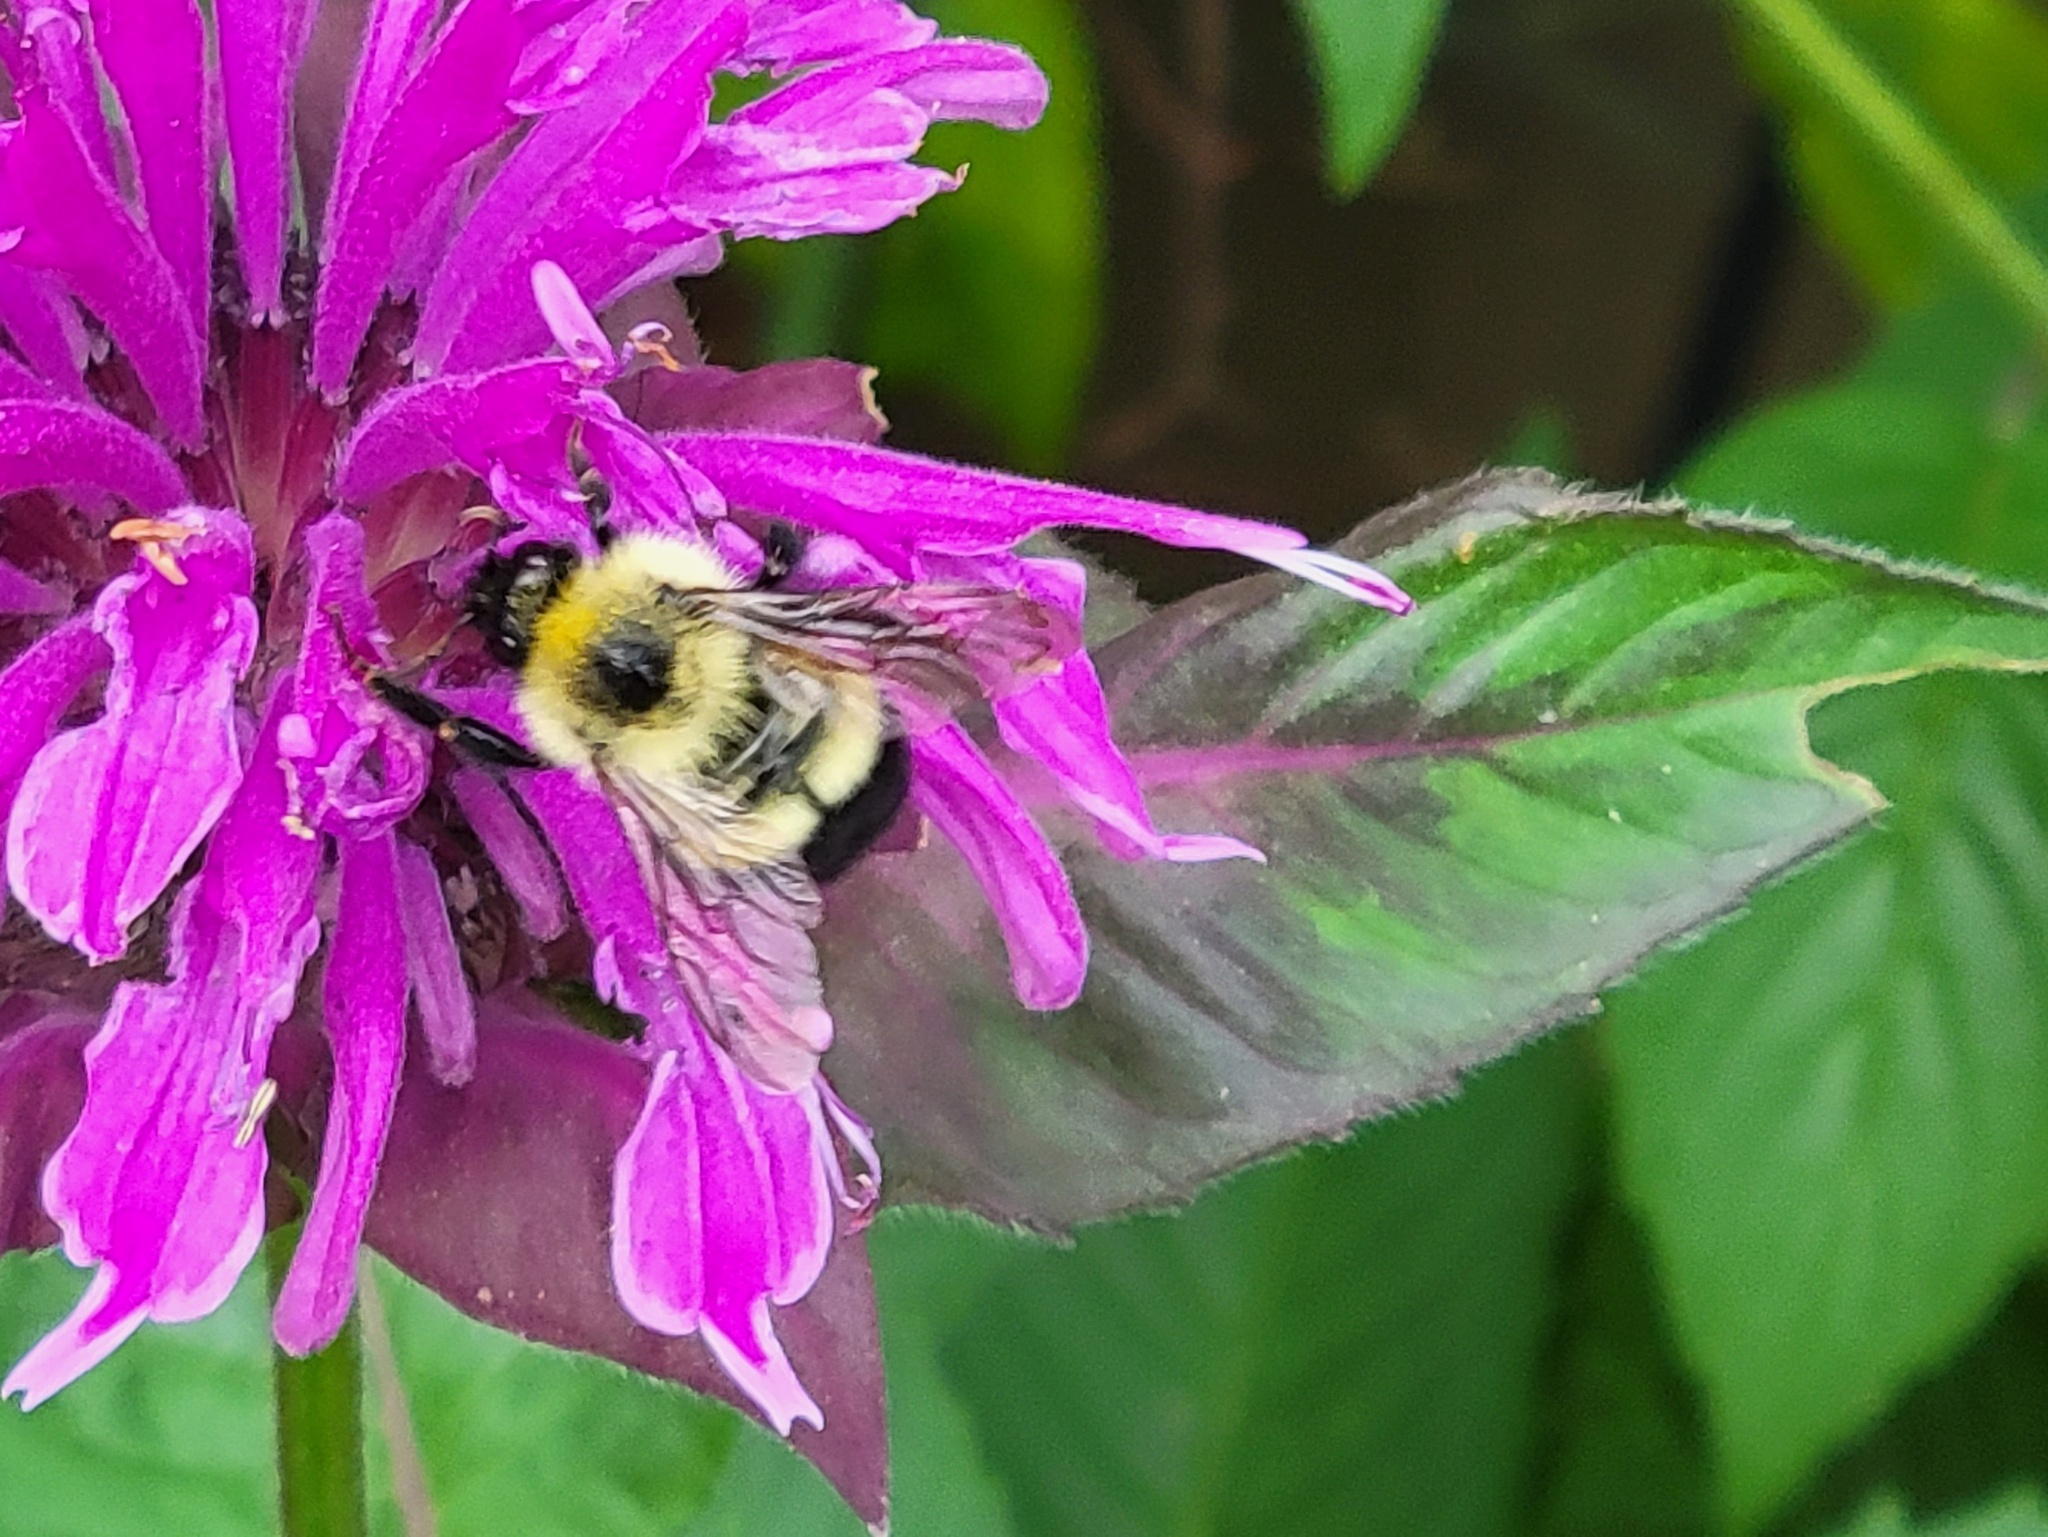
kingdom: Animalia
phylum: Arthropoda
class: Insecta
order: Hymenoptera
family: Apidae
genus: Pyrobombus
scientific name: Pyrobombus
